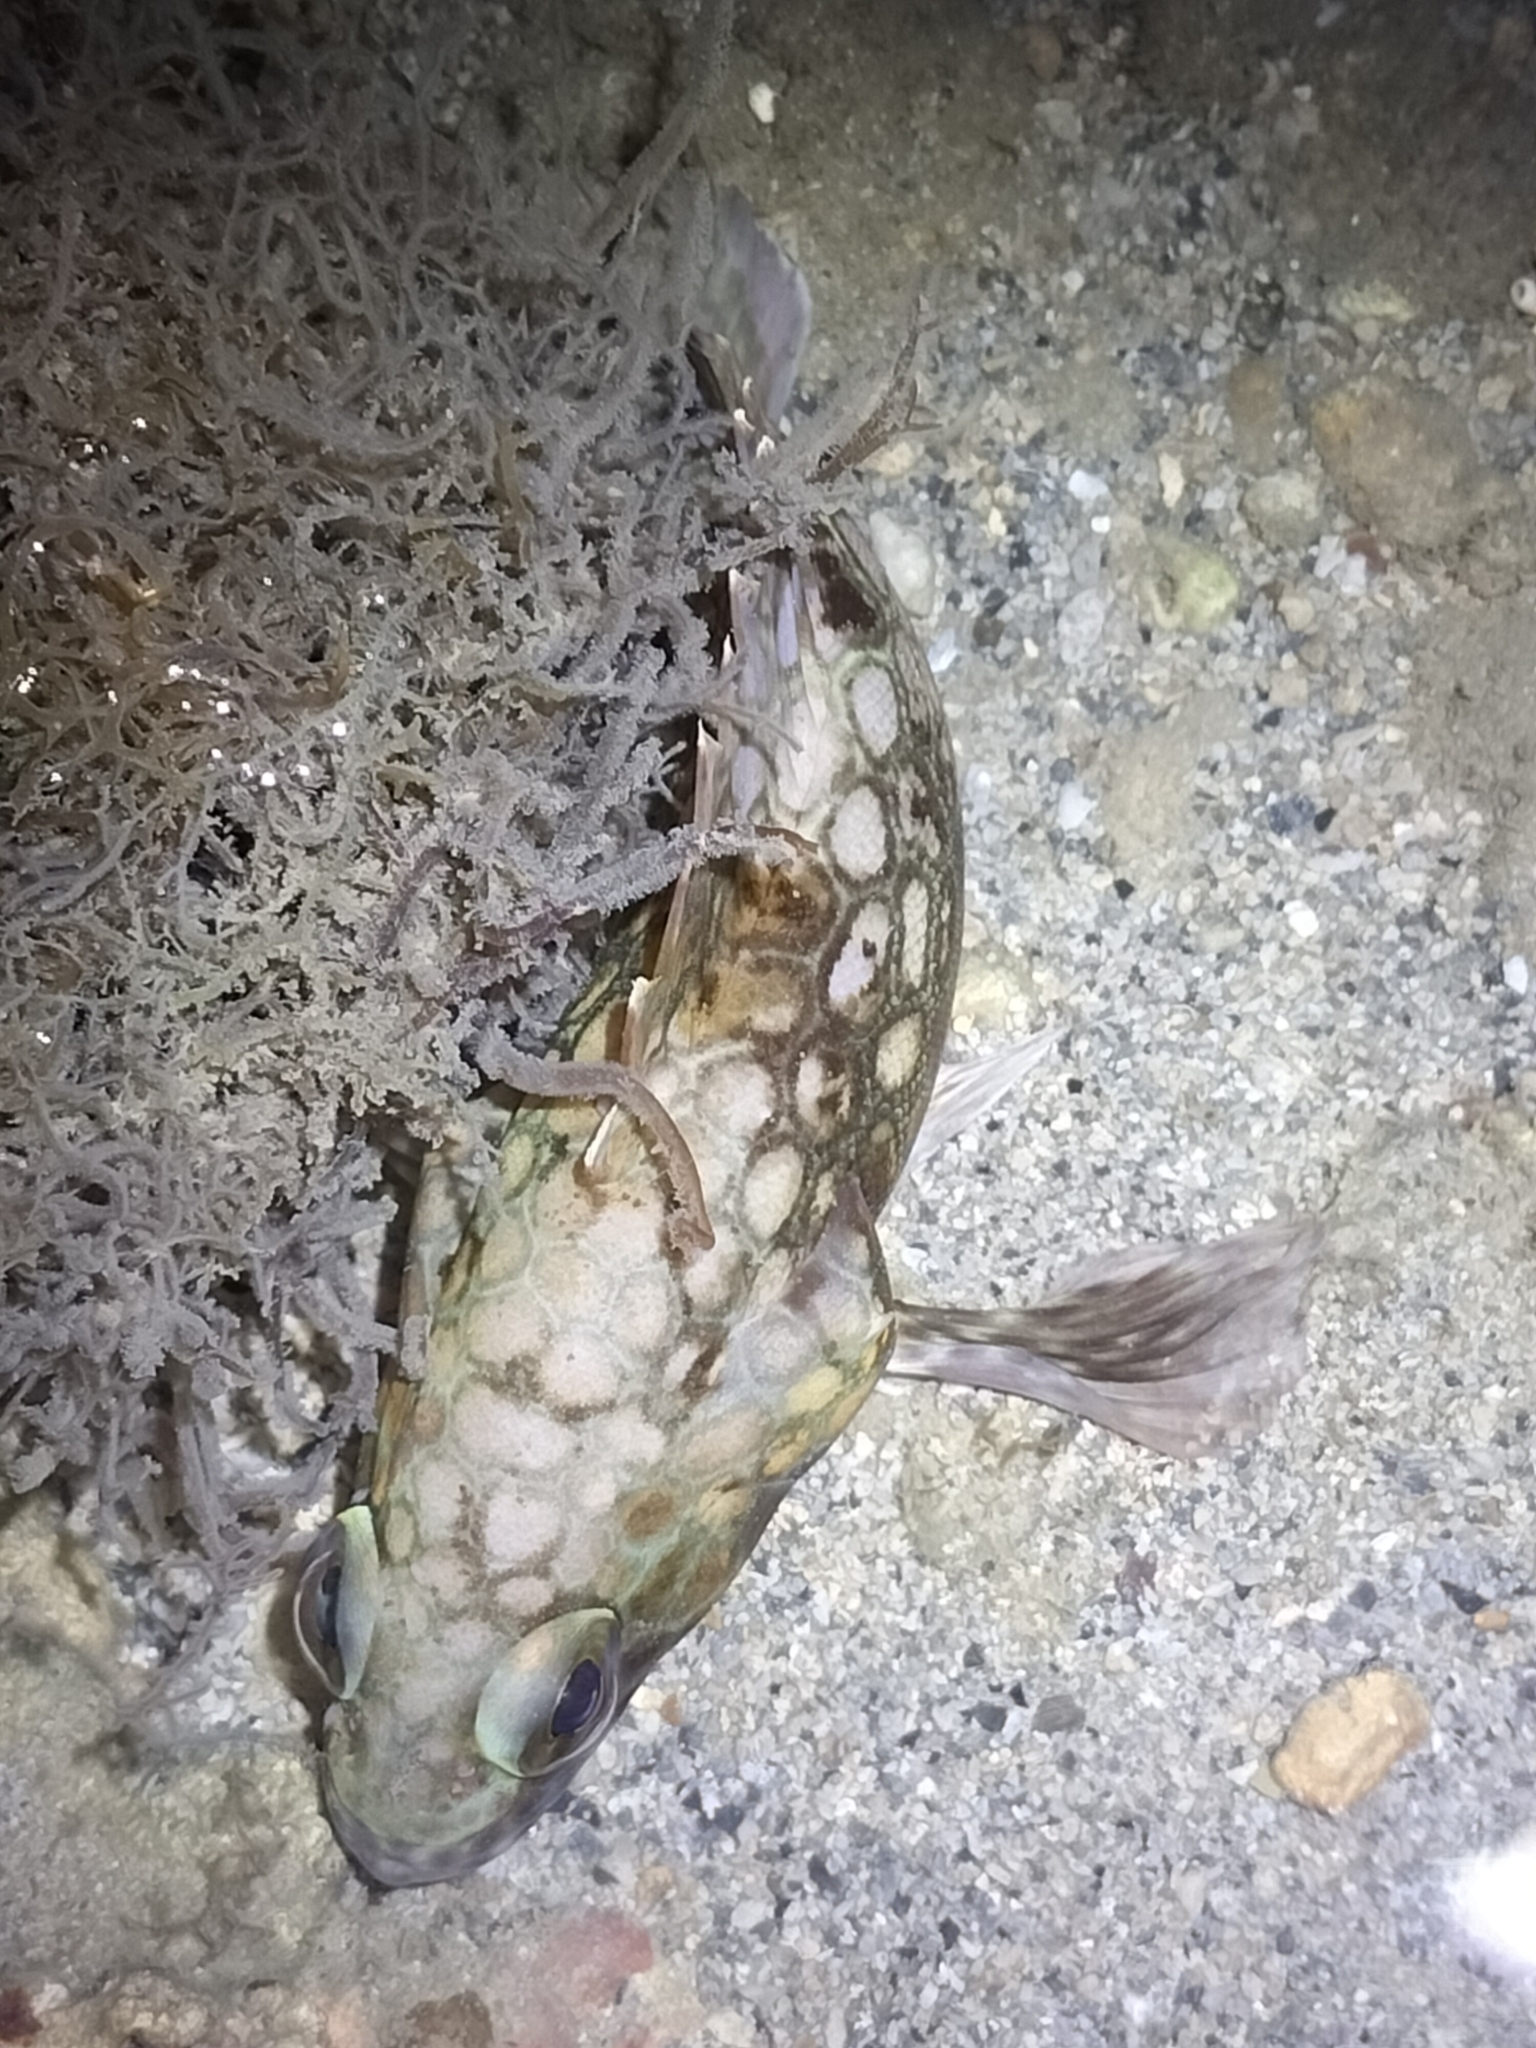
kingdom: Animalia
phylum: Chordata
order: Perciformes
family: Serranidae
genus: Epinephelus
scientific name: Epinephelus quoyanus
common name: Longfin grouper
